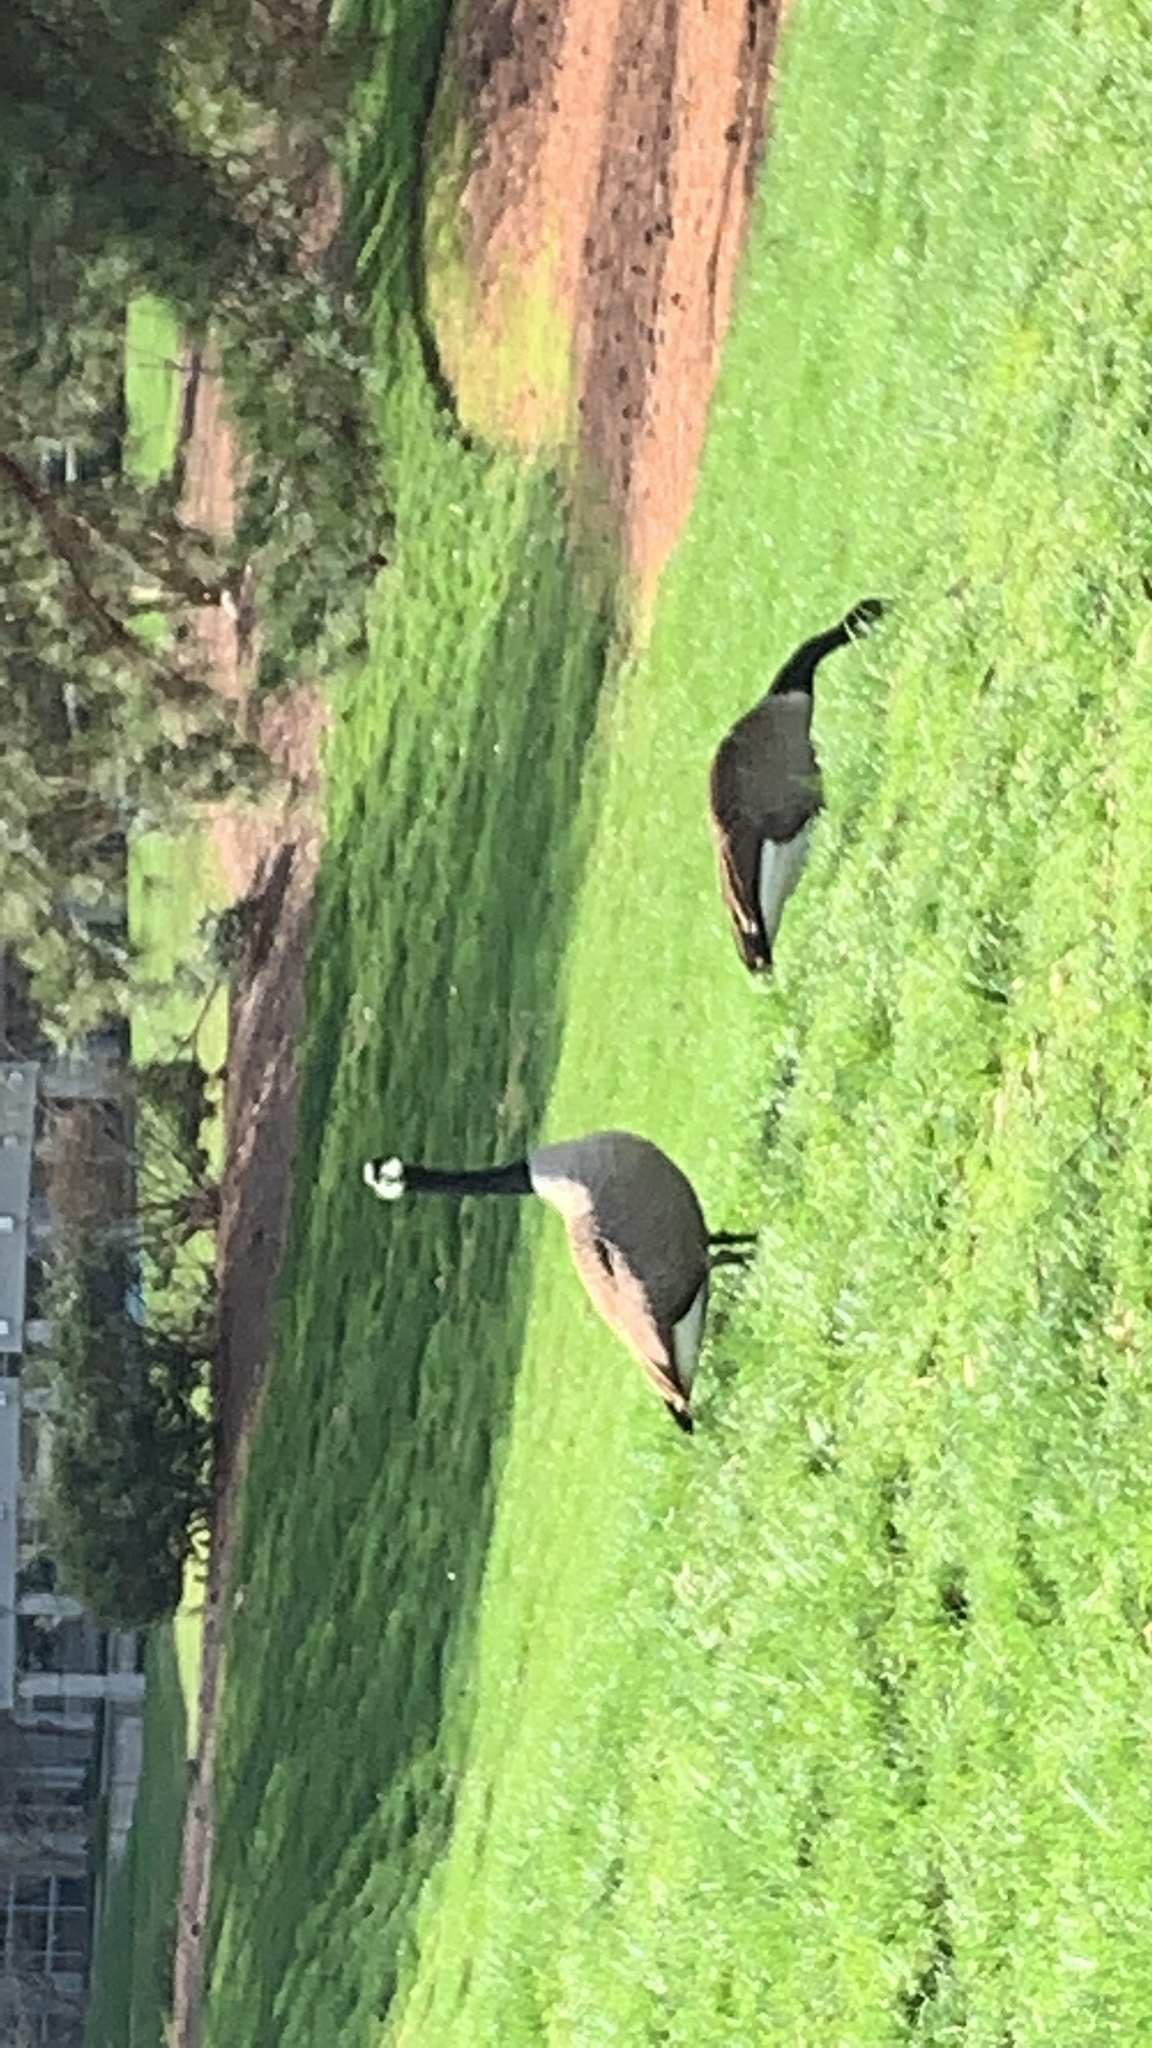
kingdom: Animalia
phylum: Chordata
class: Aves
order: Anseriformes
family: Anatidae
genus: Branta
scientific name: Branta canadensis
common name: Canada goose
